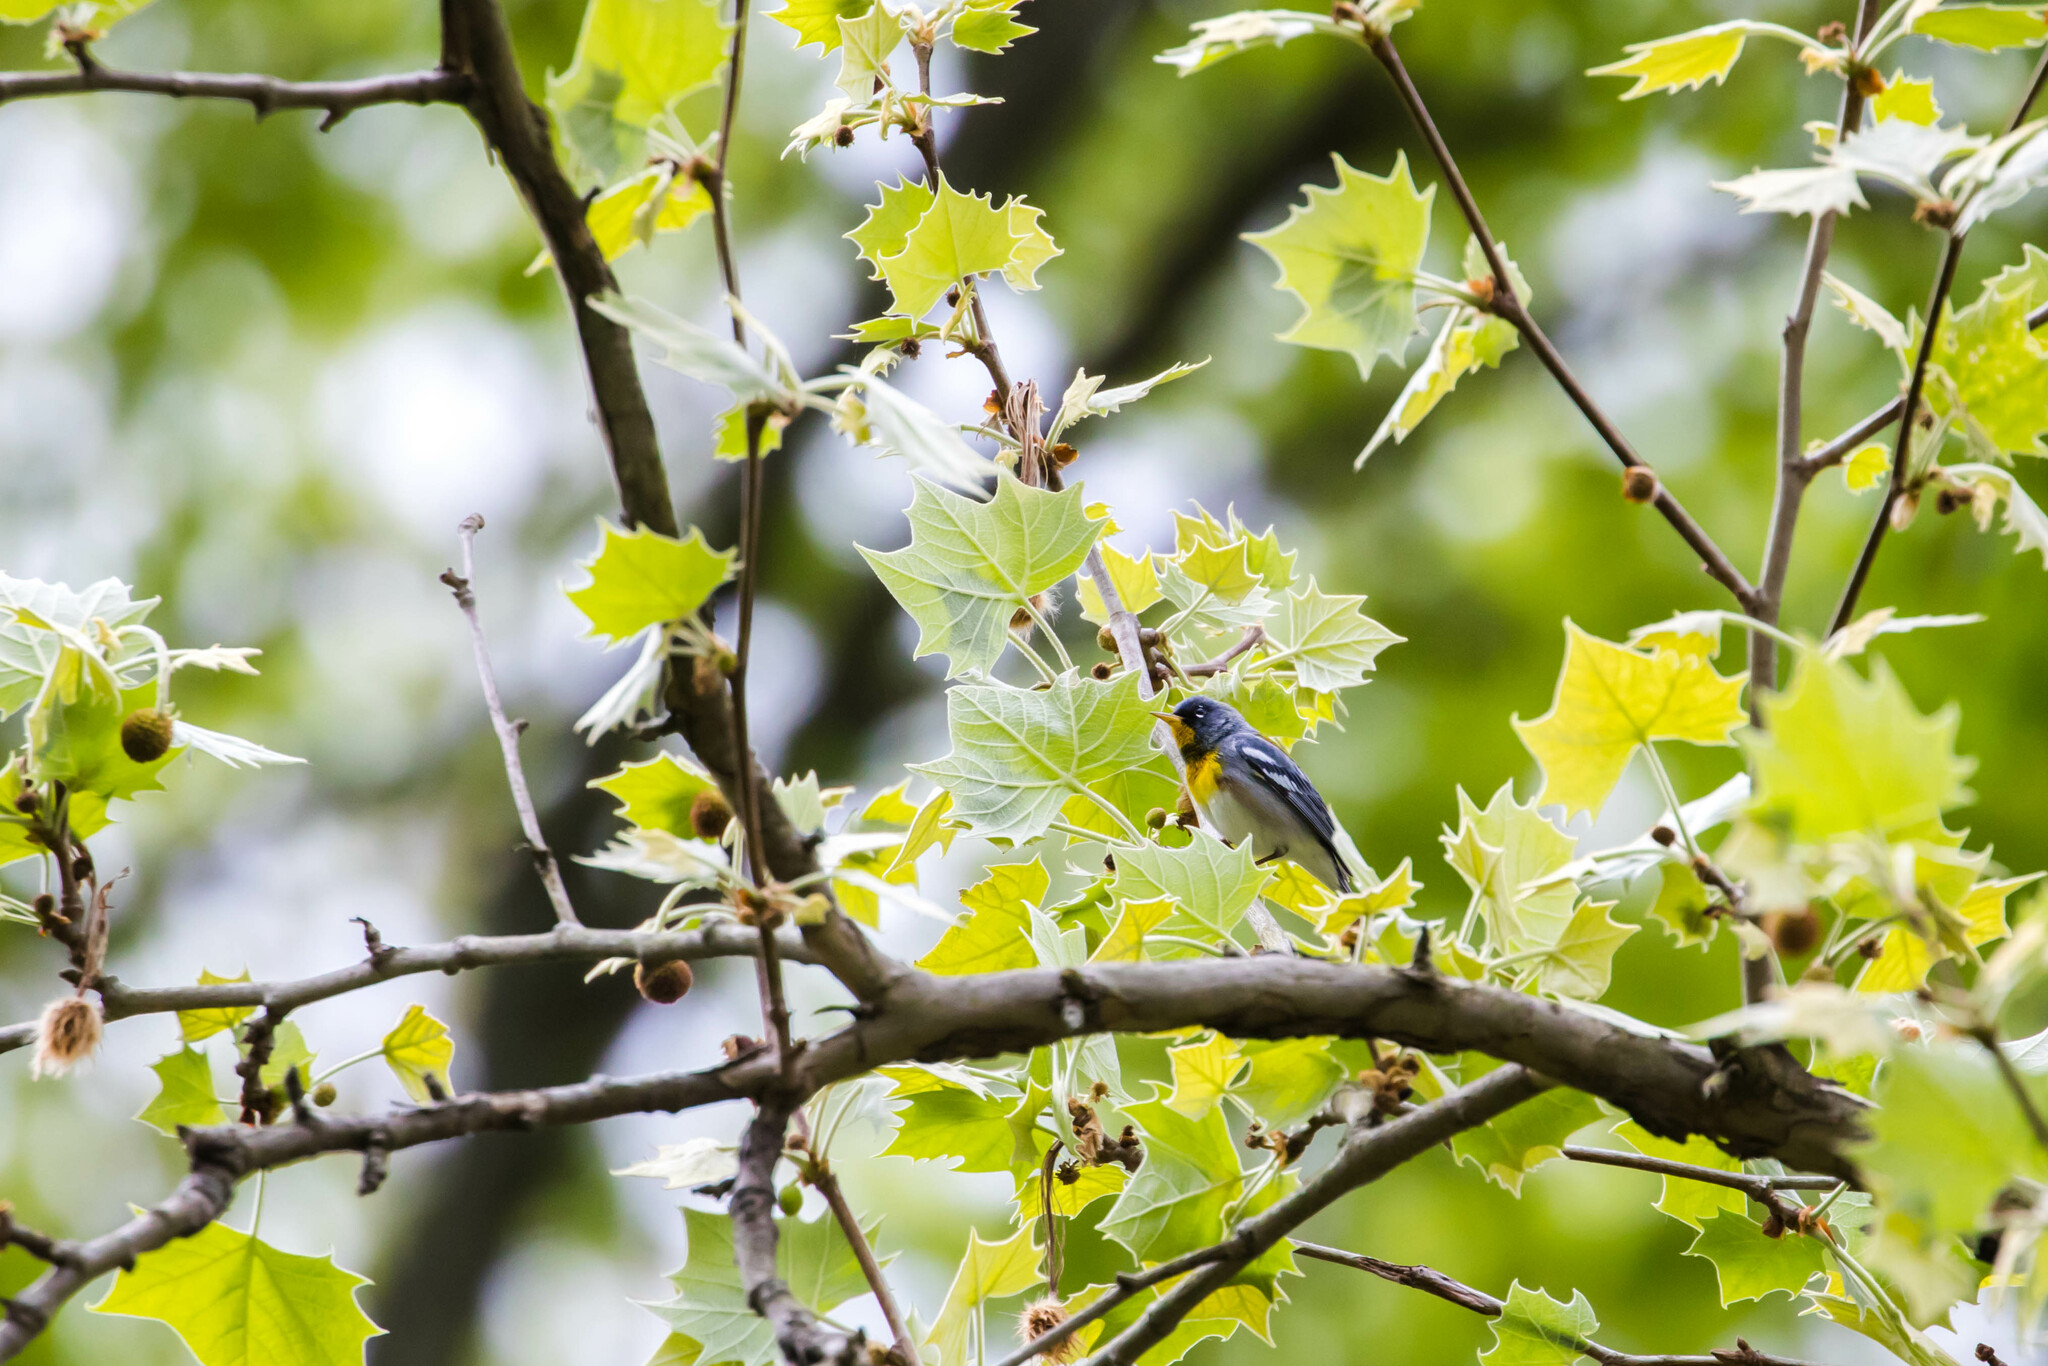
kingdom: Animalia
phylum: Chordata
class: Aves
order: Passeriformes
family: Parulidae
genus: Setophaga
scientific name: Setophaga americana
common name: Northern parula
